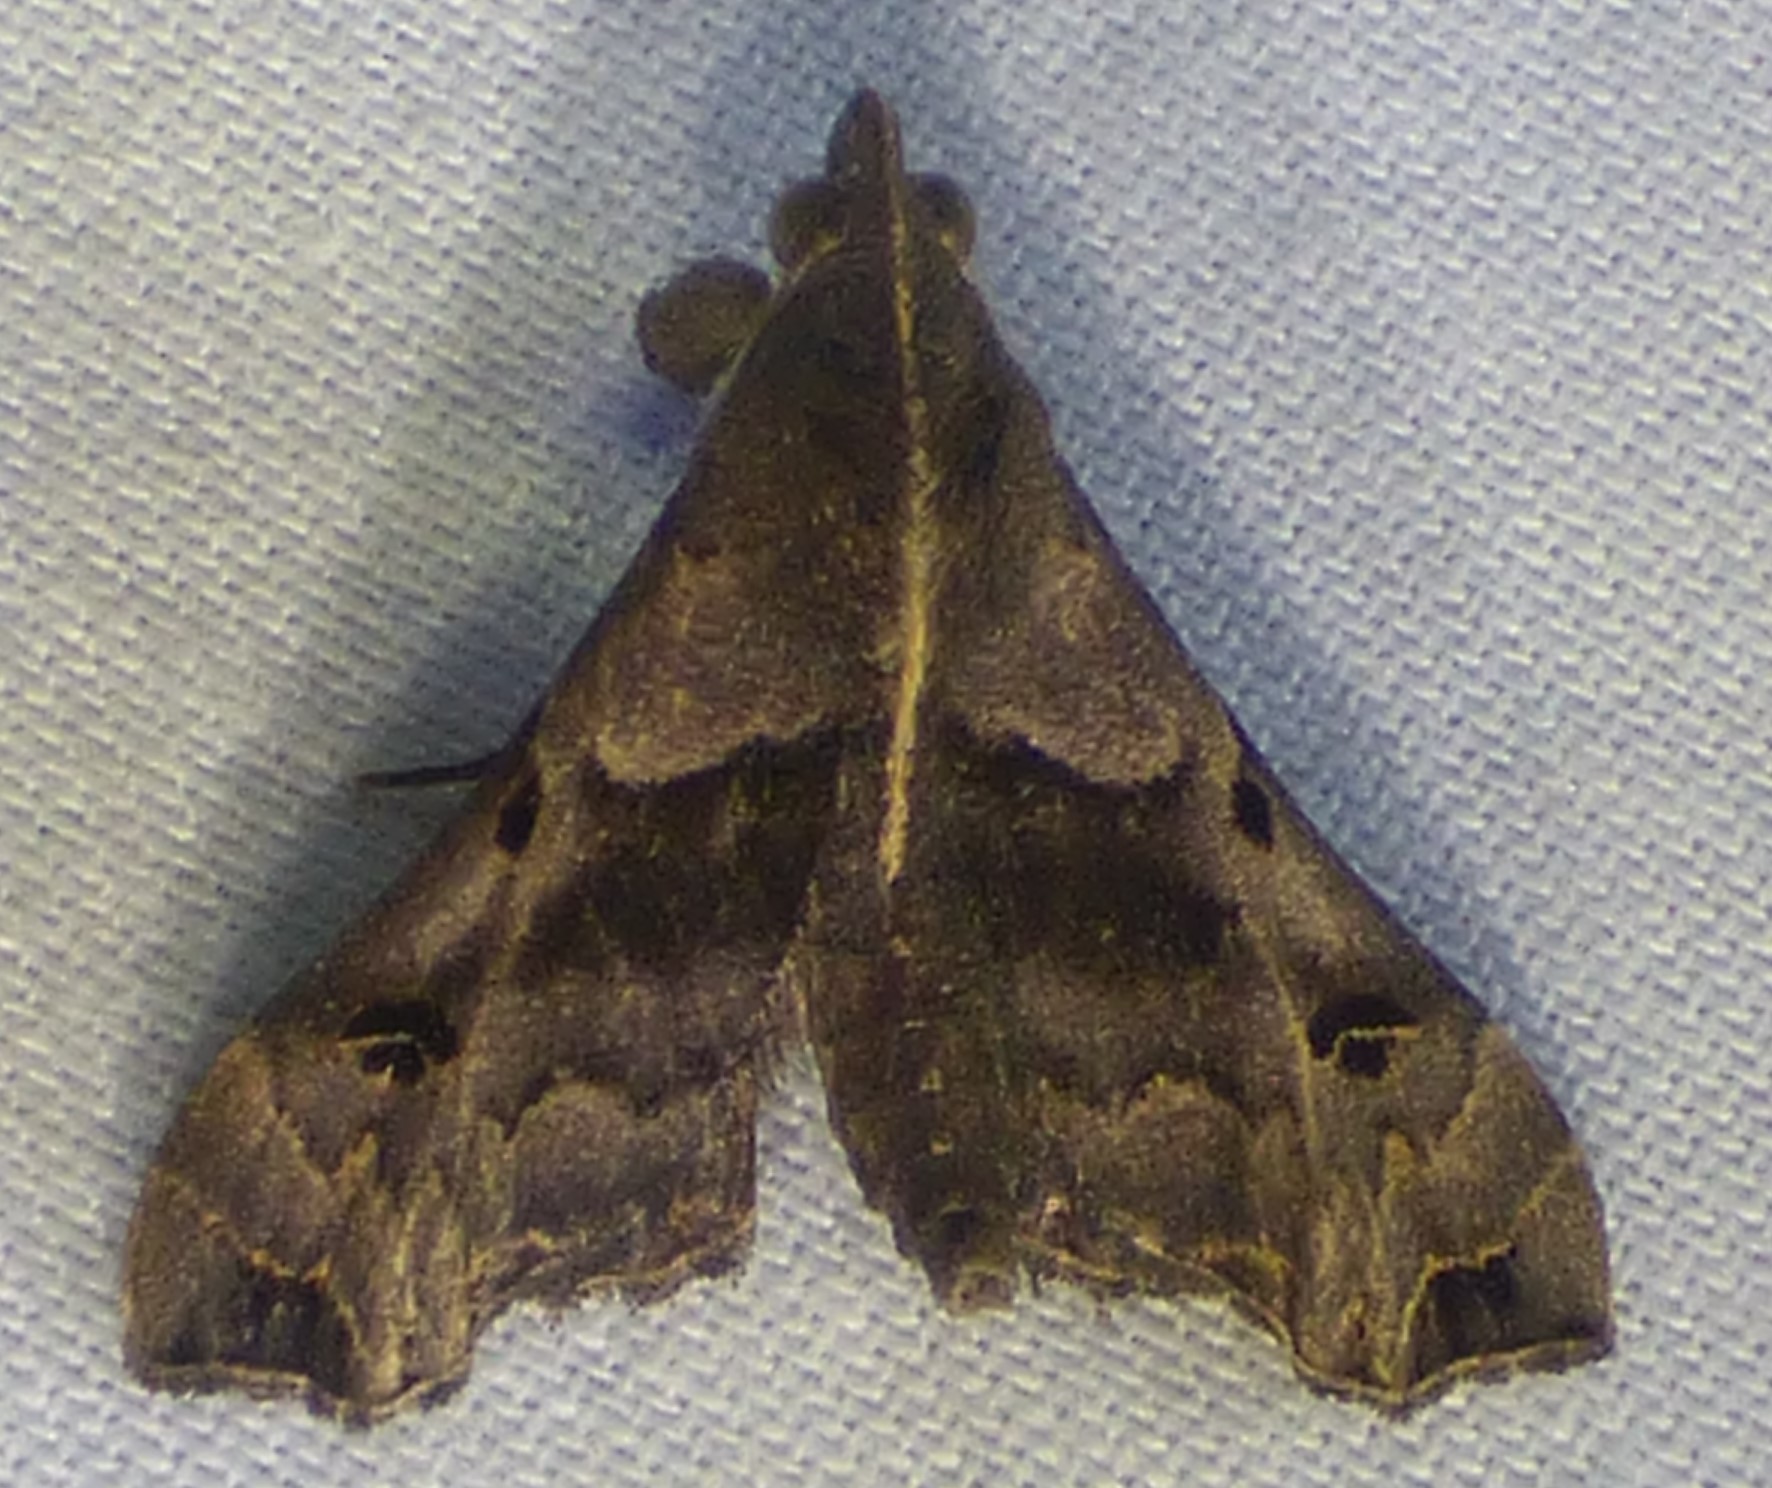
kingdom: Animalia
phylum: Arthropoda
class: Insecta
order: Lepidoptera
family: Erebidae
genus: Palthis
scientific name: Palthis asopialis
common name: Faint-spotted palthis moth
